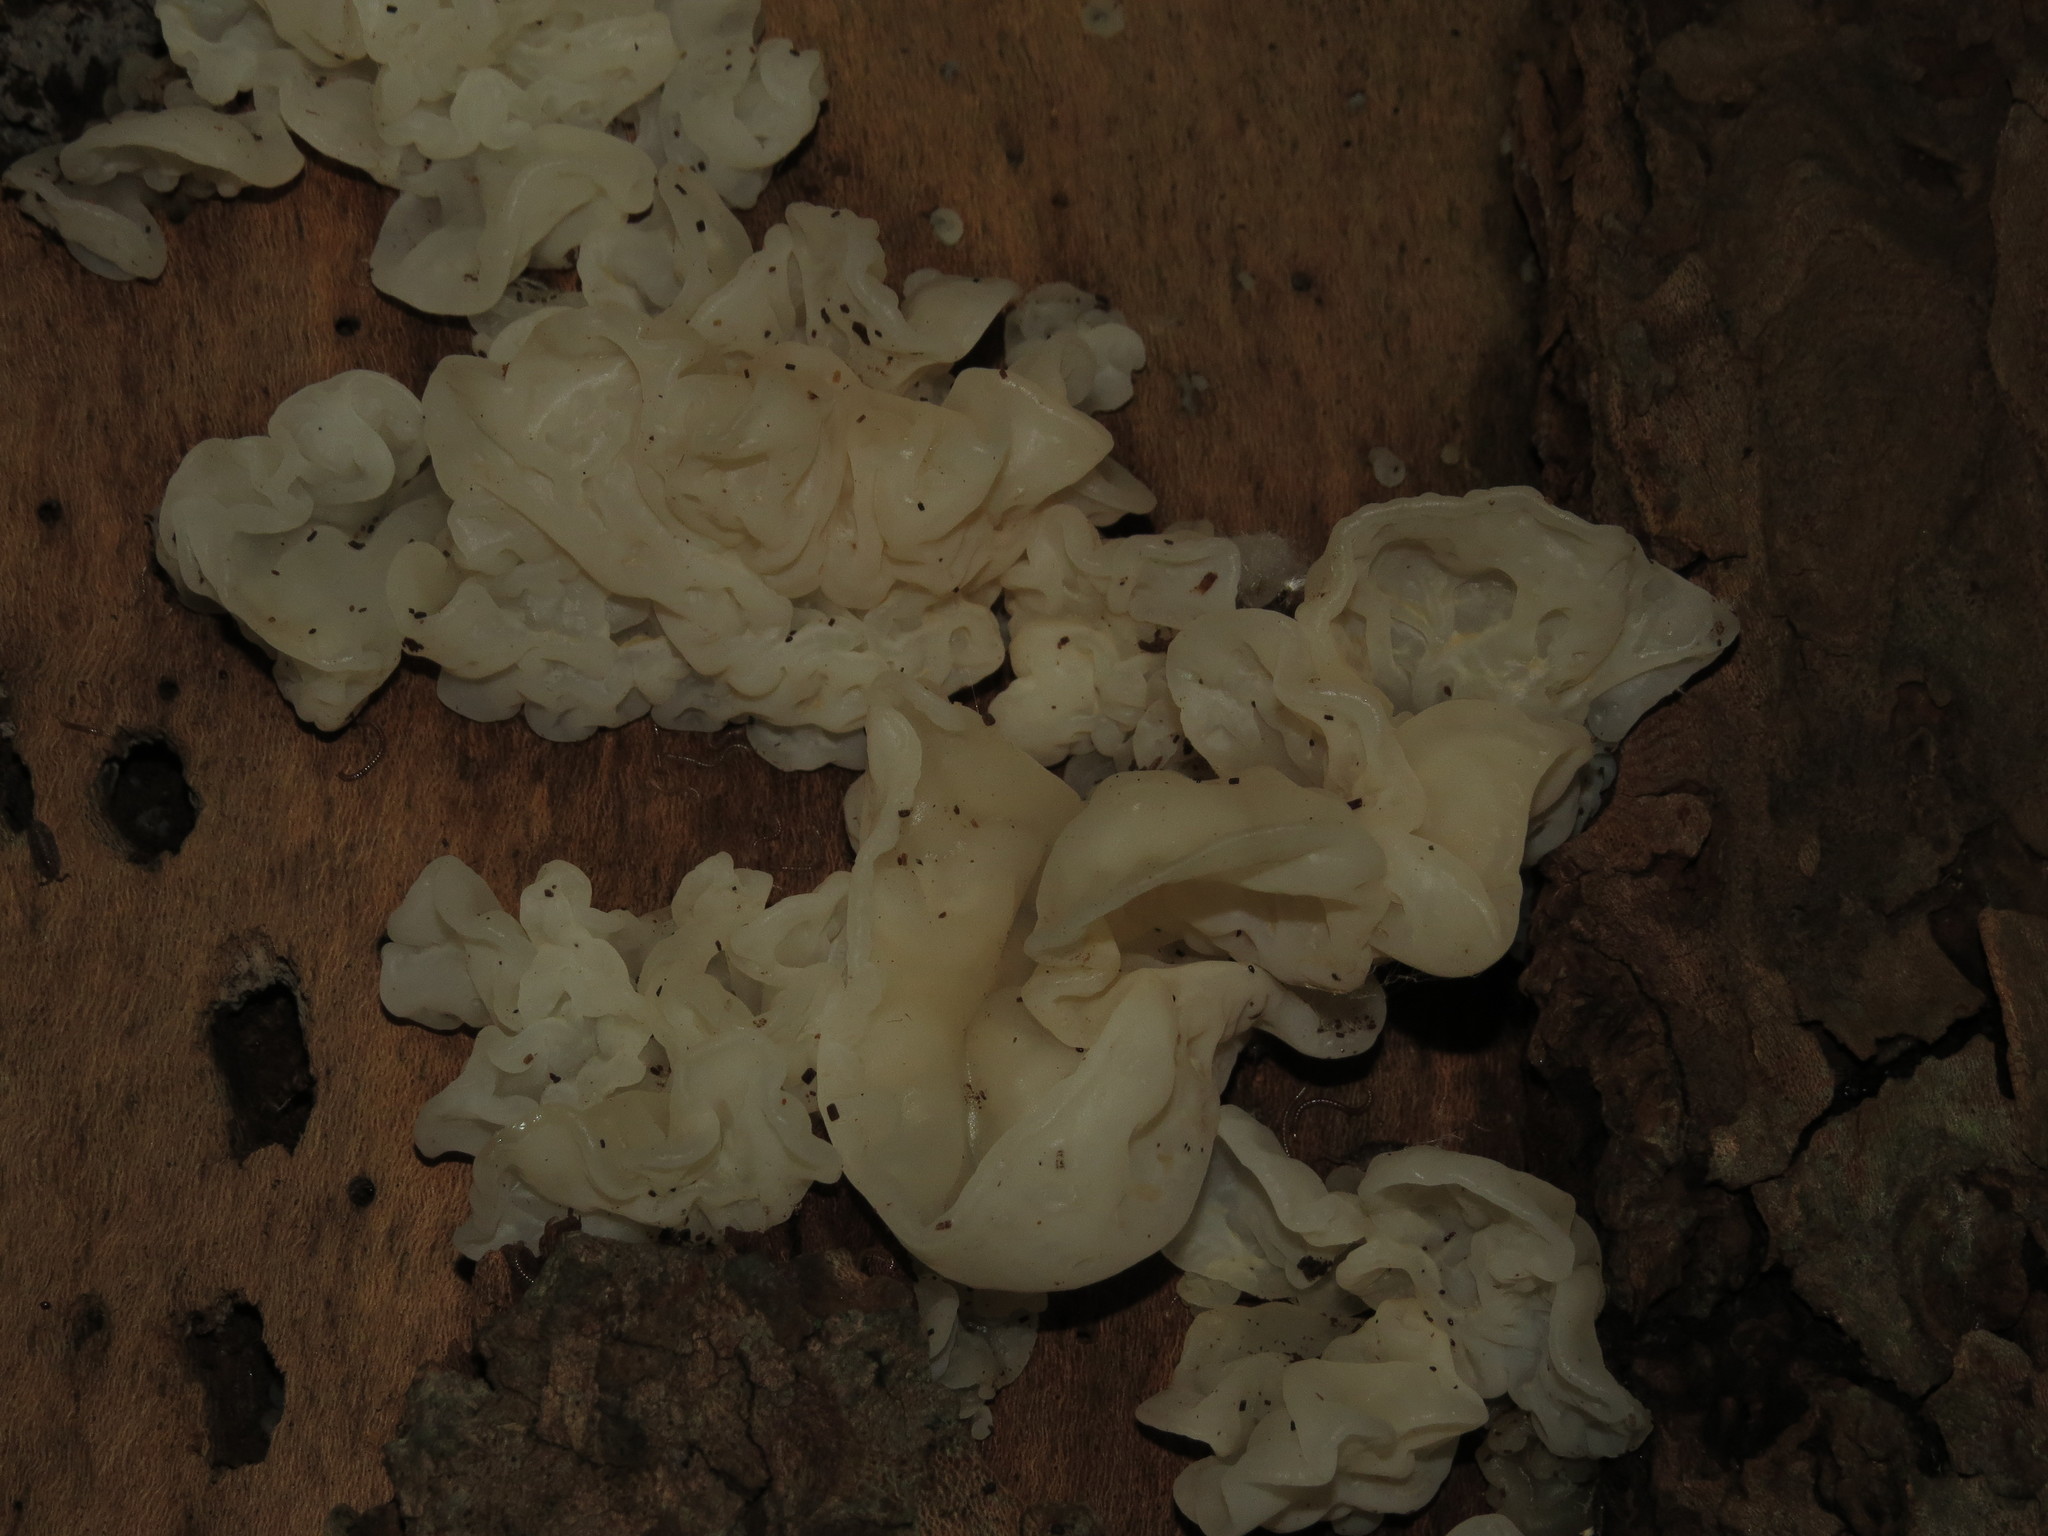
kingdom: Fungi
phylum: Basidiomycota
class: Agaricomycetes
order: Auriculariales
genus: Ductifera
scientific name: Ductifera pululahuana
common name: White jelly fungus
